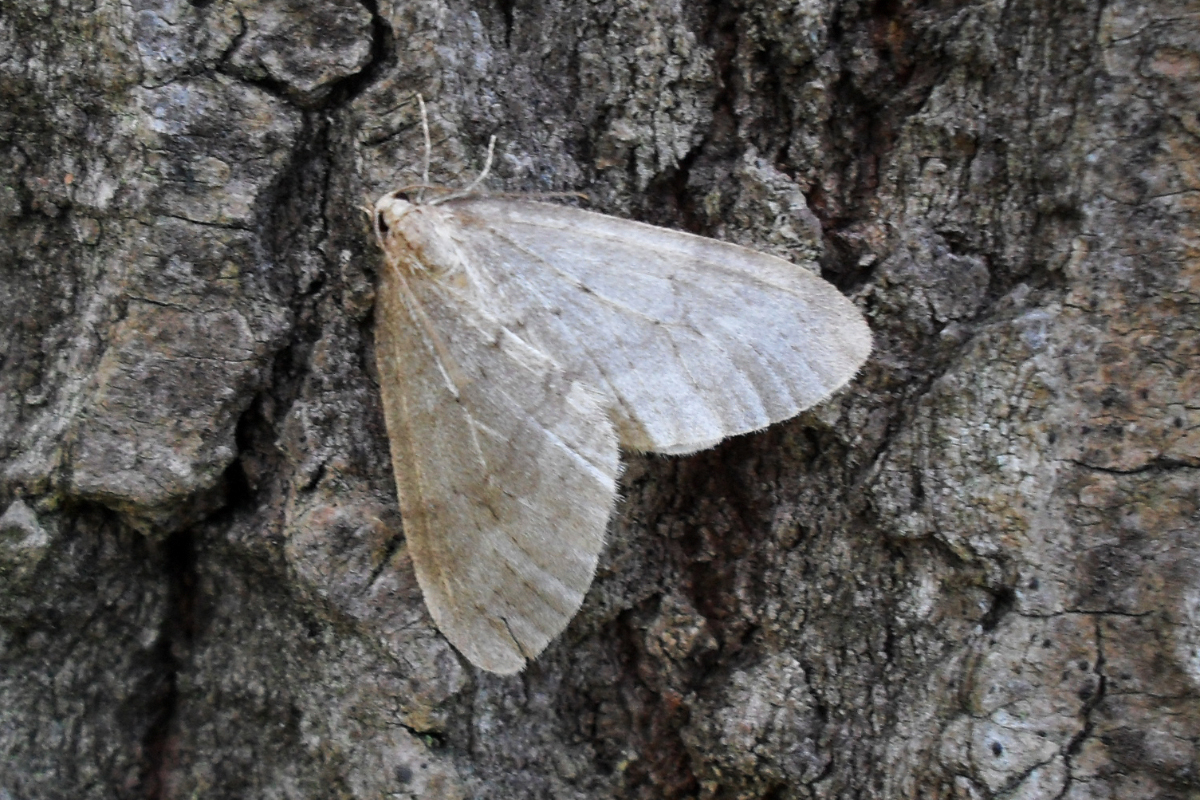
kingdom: Animalia
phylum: Arthropoda
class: Insecta
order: Lepidoptera
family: Geometridae
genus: Operophtera
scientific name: Operophtera fagata
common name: Northern winter moth
